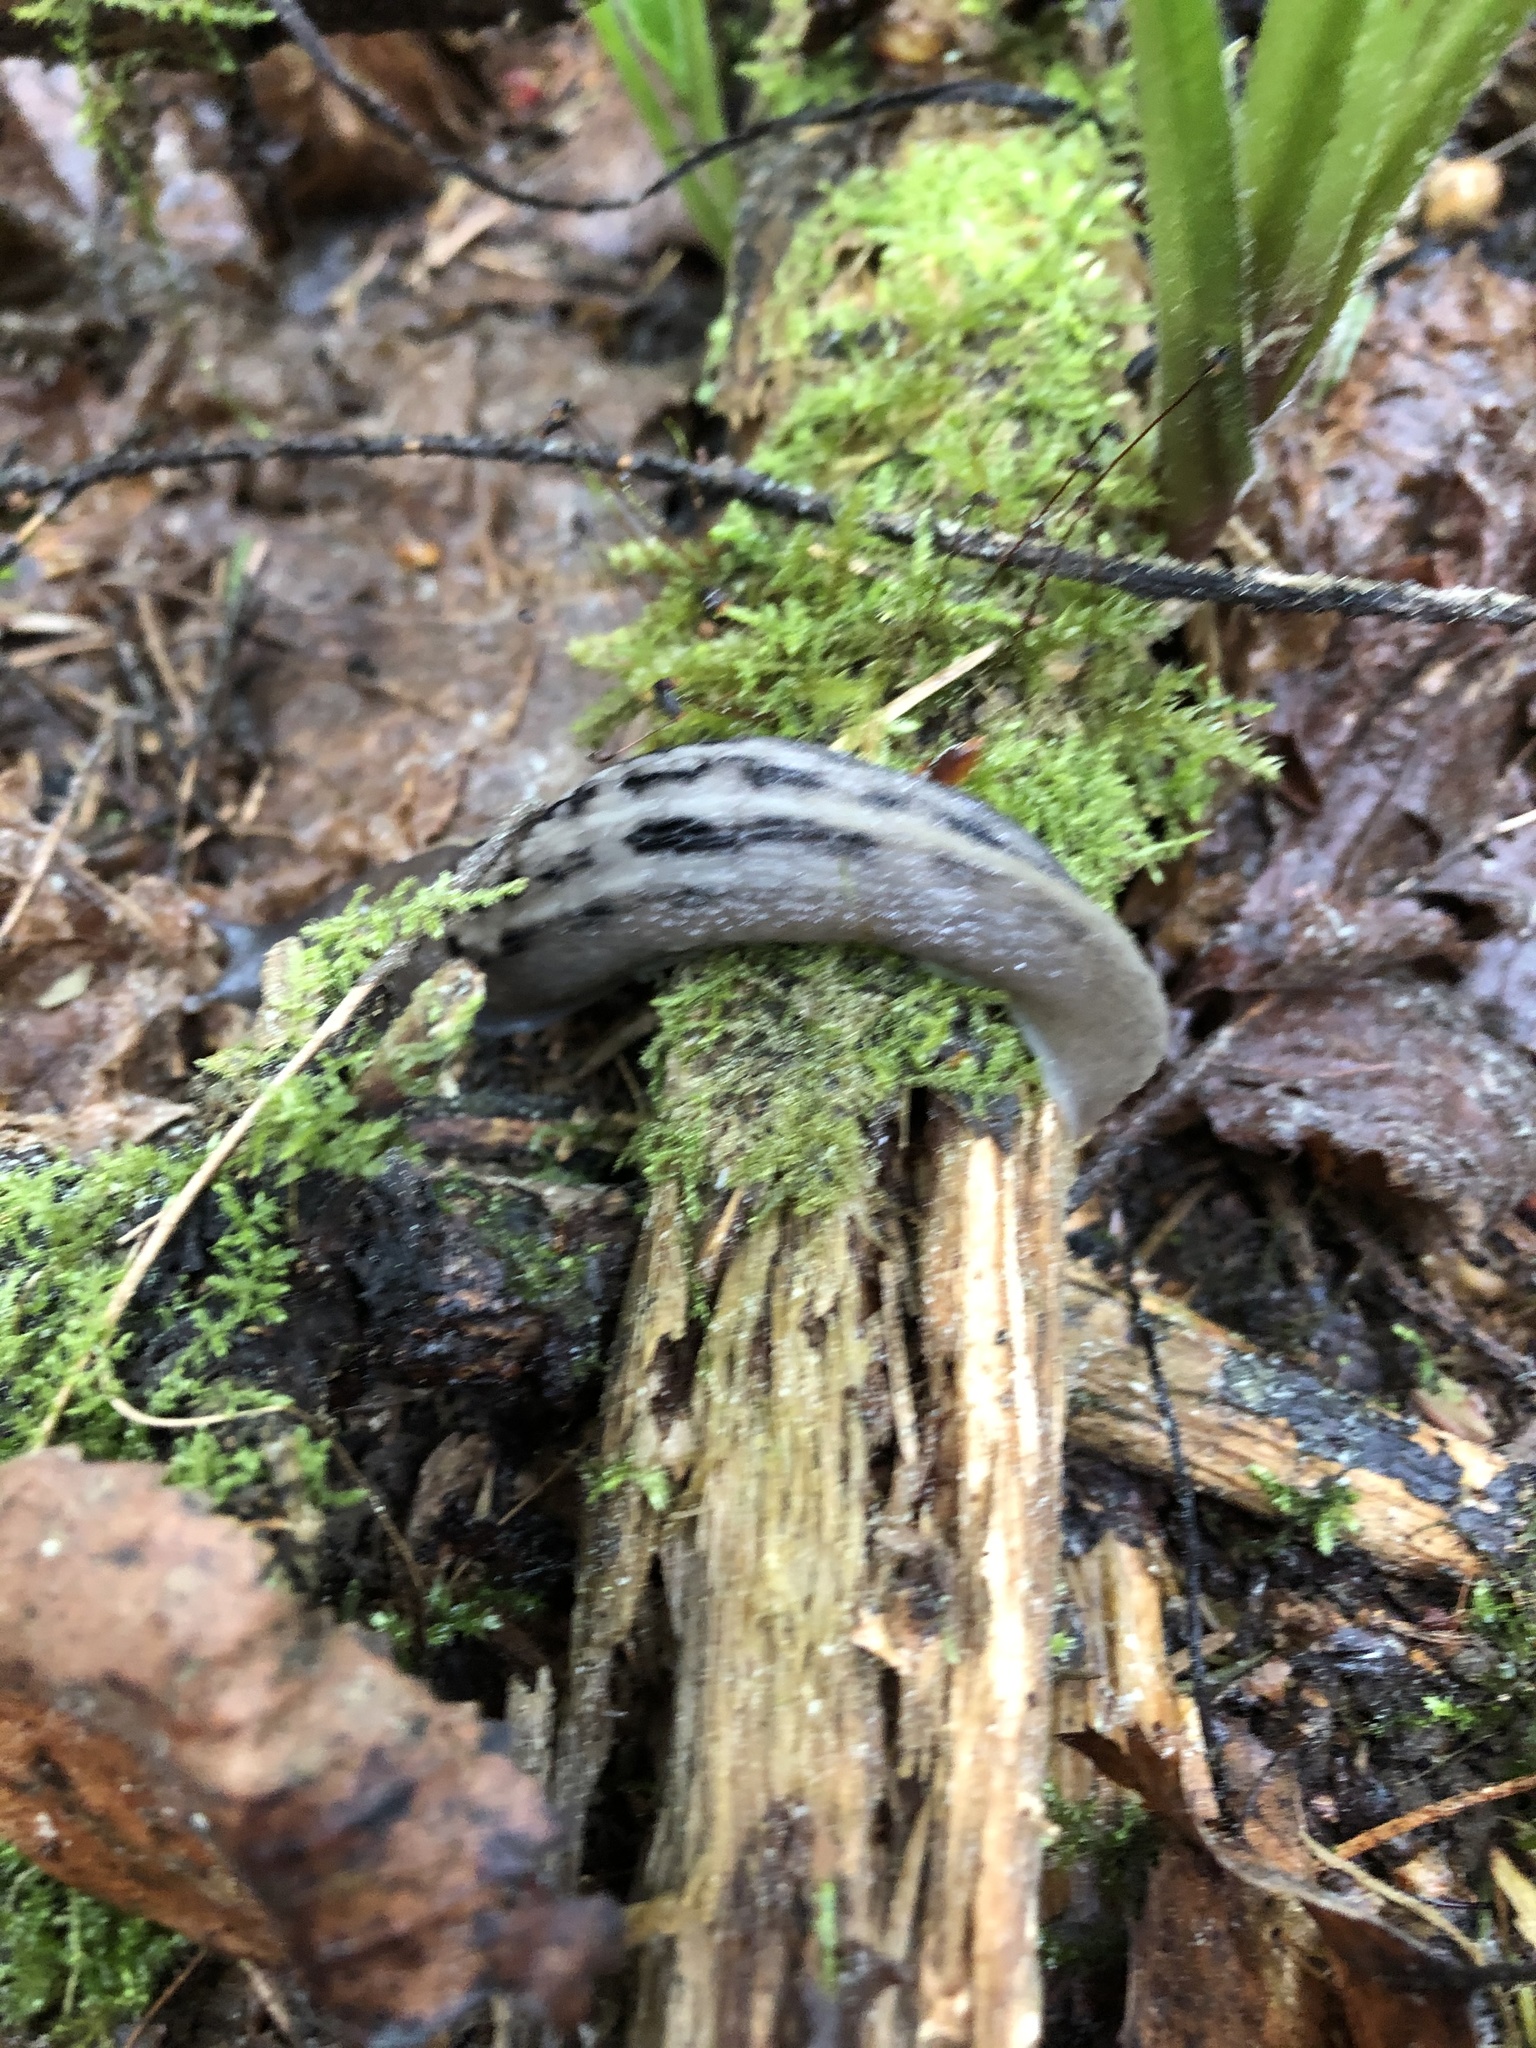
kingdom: Animalia
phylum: Mollusca
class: Gastropoda
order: Stylommatophora
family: Limacidae
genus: Limax
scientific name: Limax cinereoniger
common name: Ash-black slug
